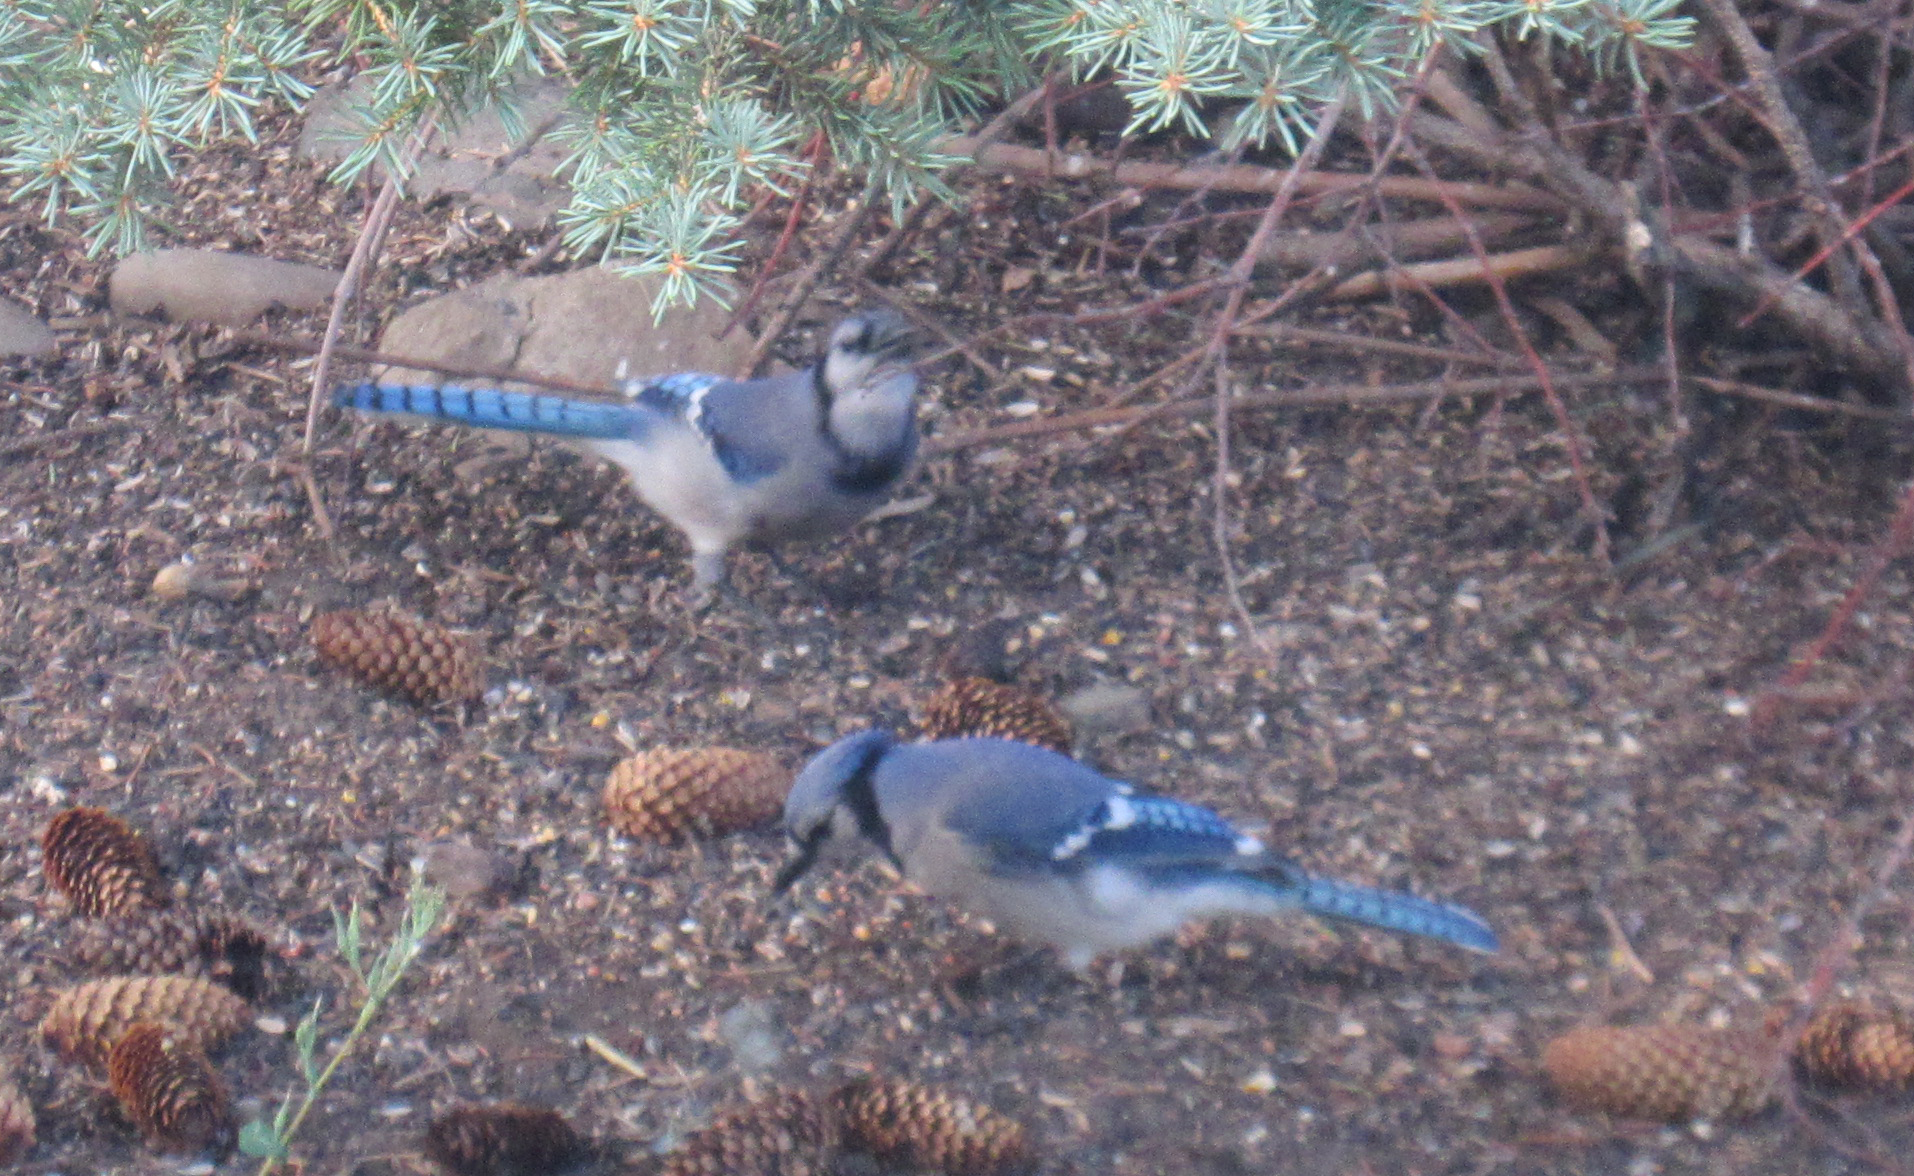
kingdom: Animalia
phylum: Chordata
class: Aves
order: Passeriformes
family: Corvidae
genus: Cyanocitta
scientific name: Cyanocitta cristata
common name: Blue jay
